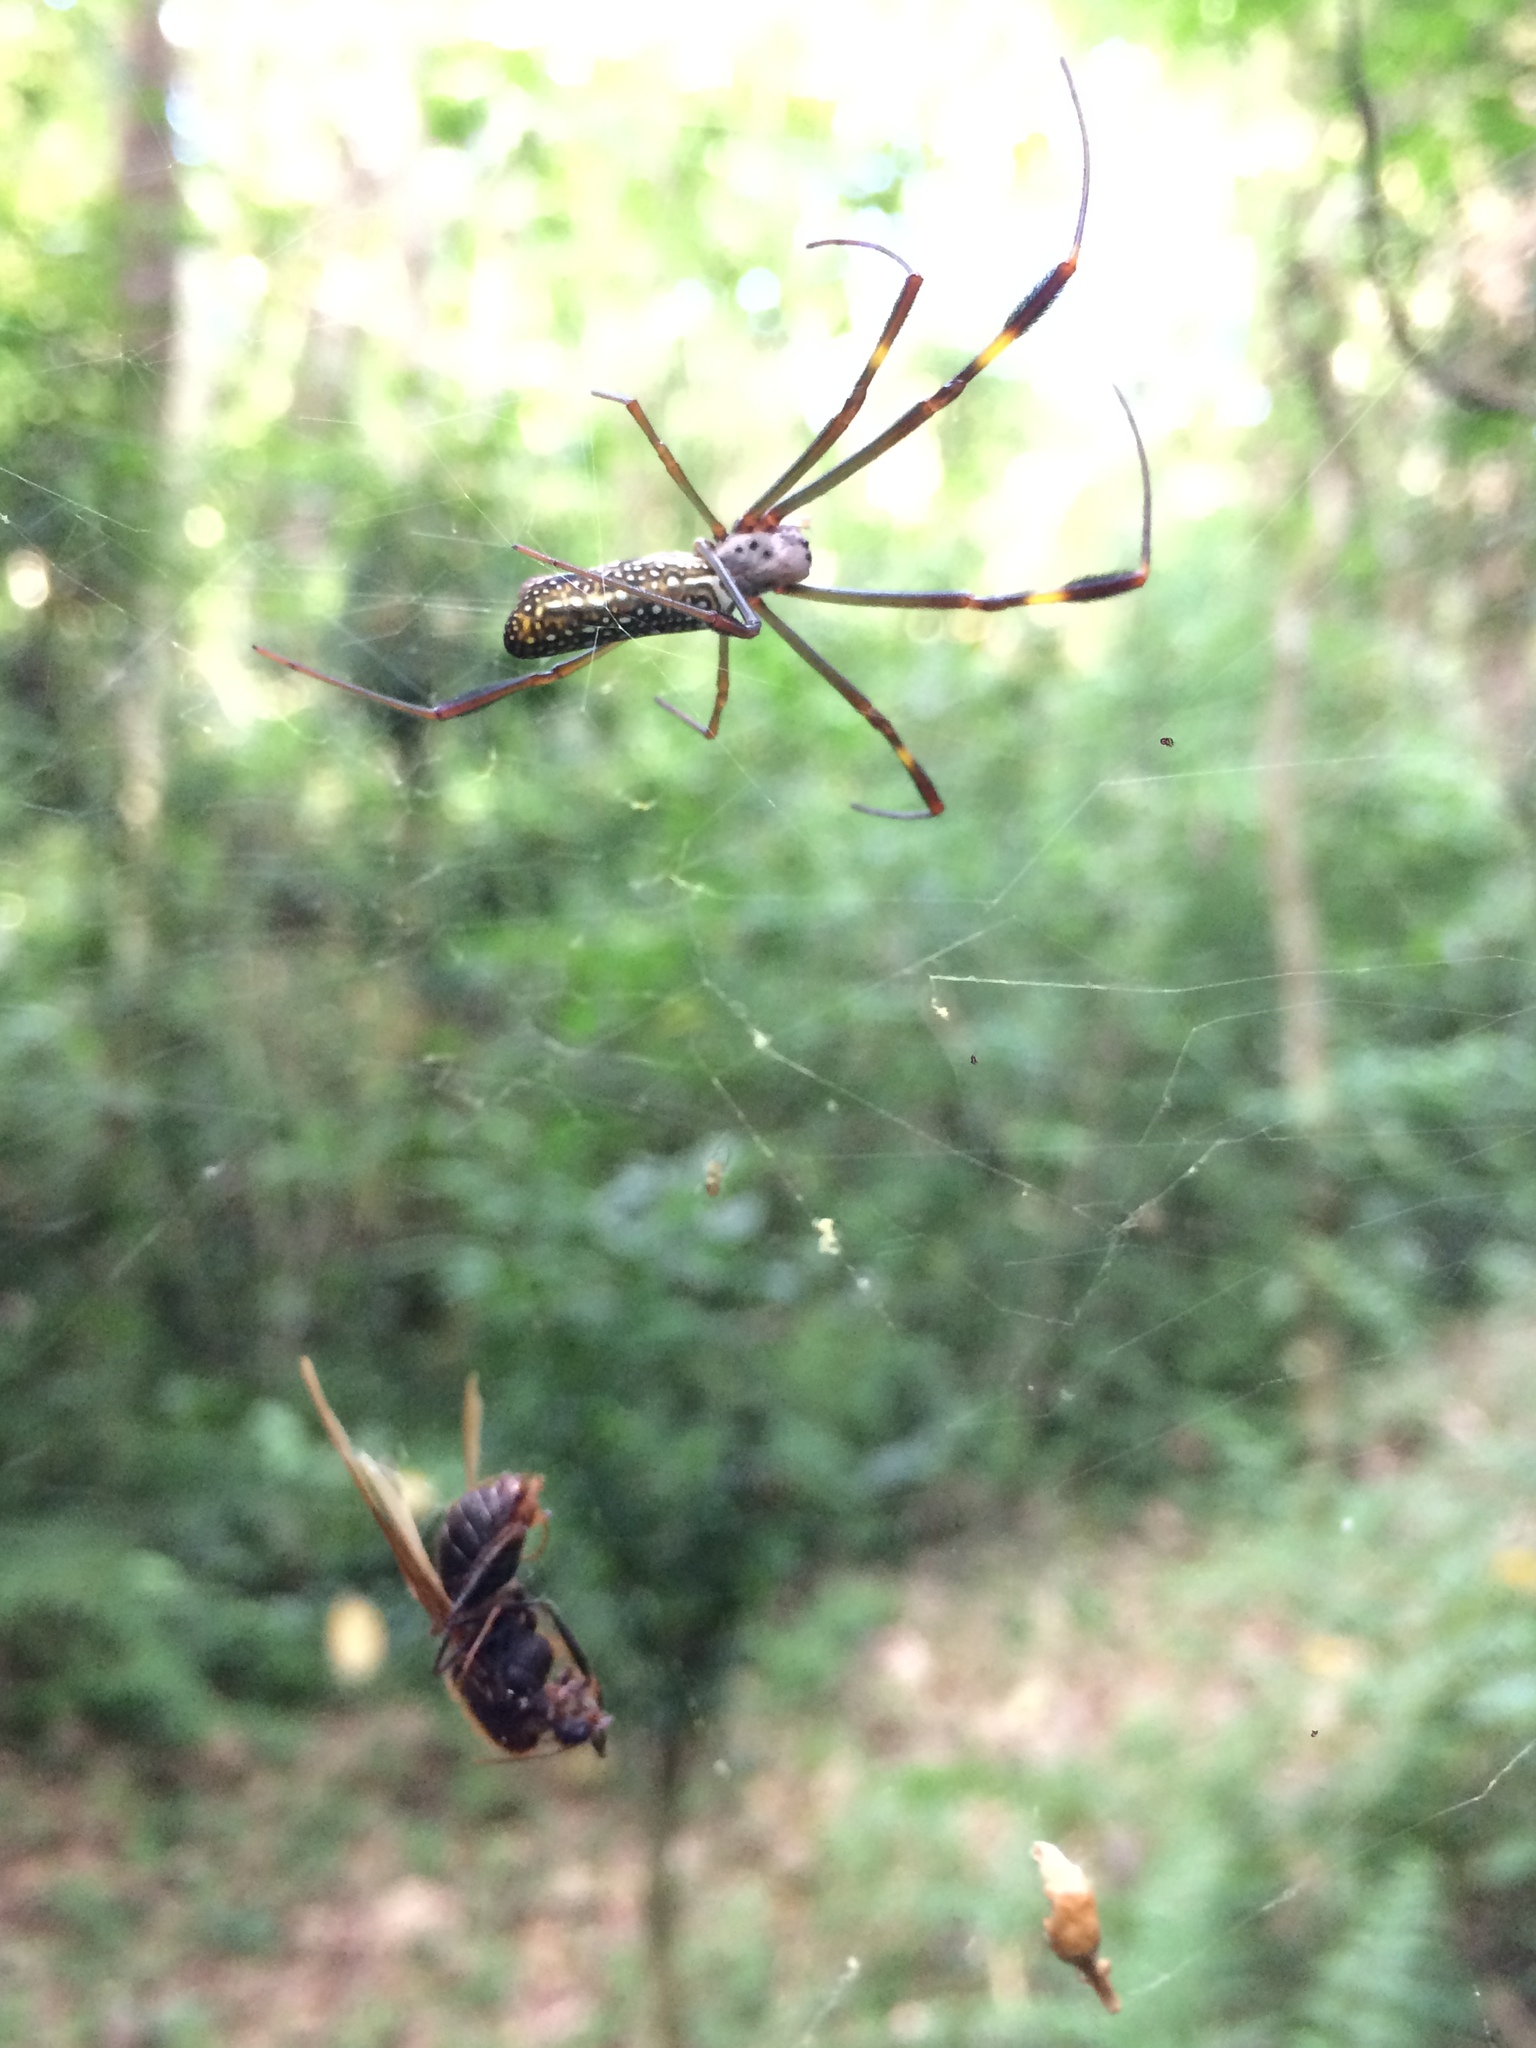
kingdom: Animalia
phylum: Arthropoda
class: Arachnida
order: Araneae
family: Araneidae
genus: Trichonephila
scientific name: Trichonephila clavipes
